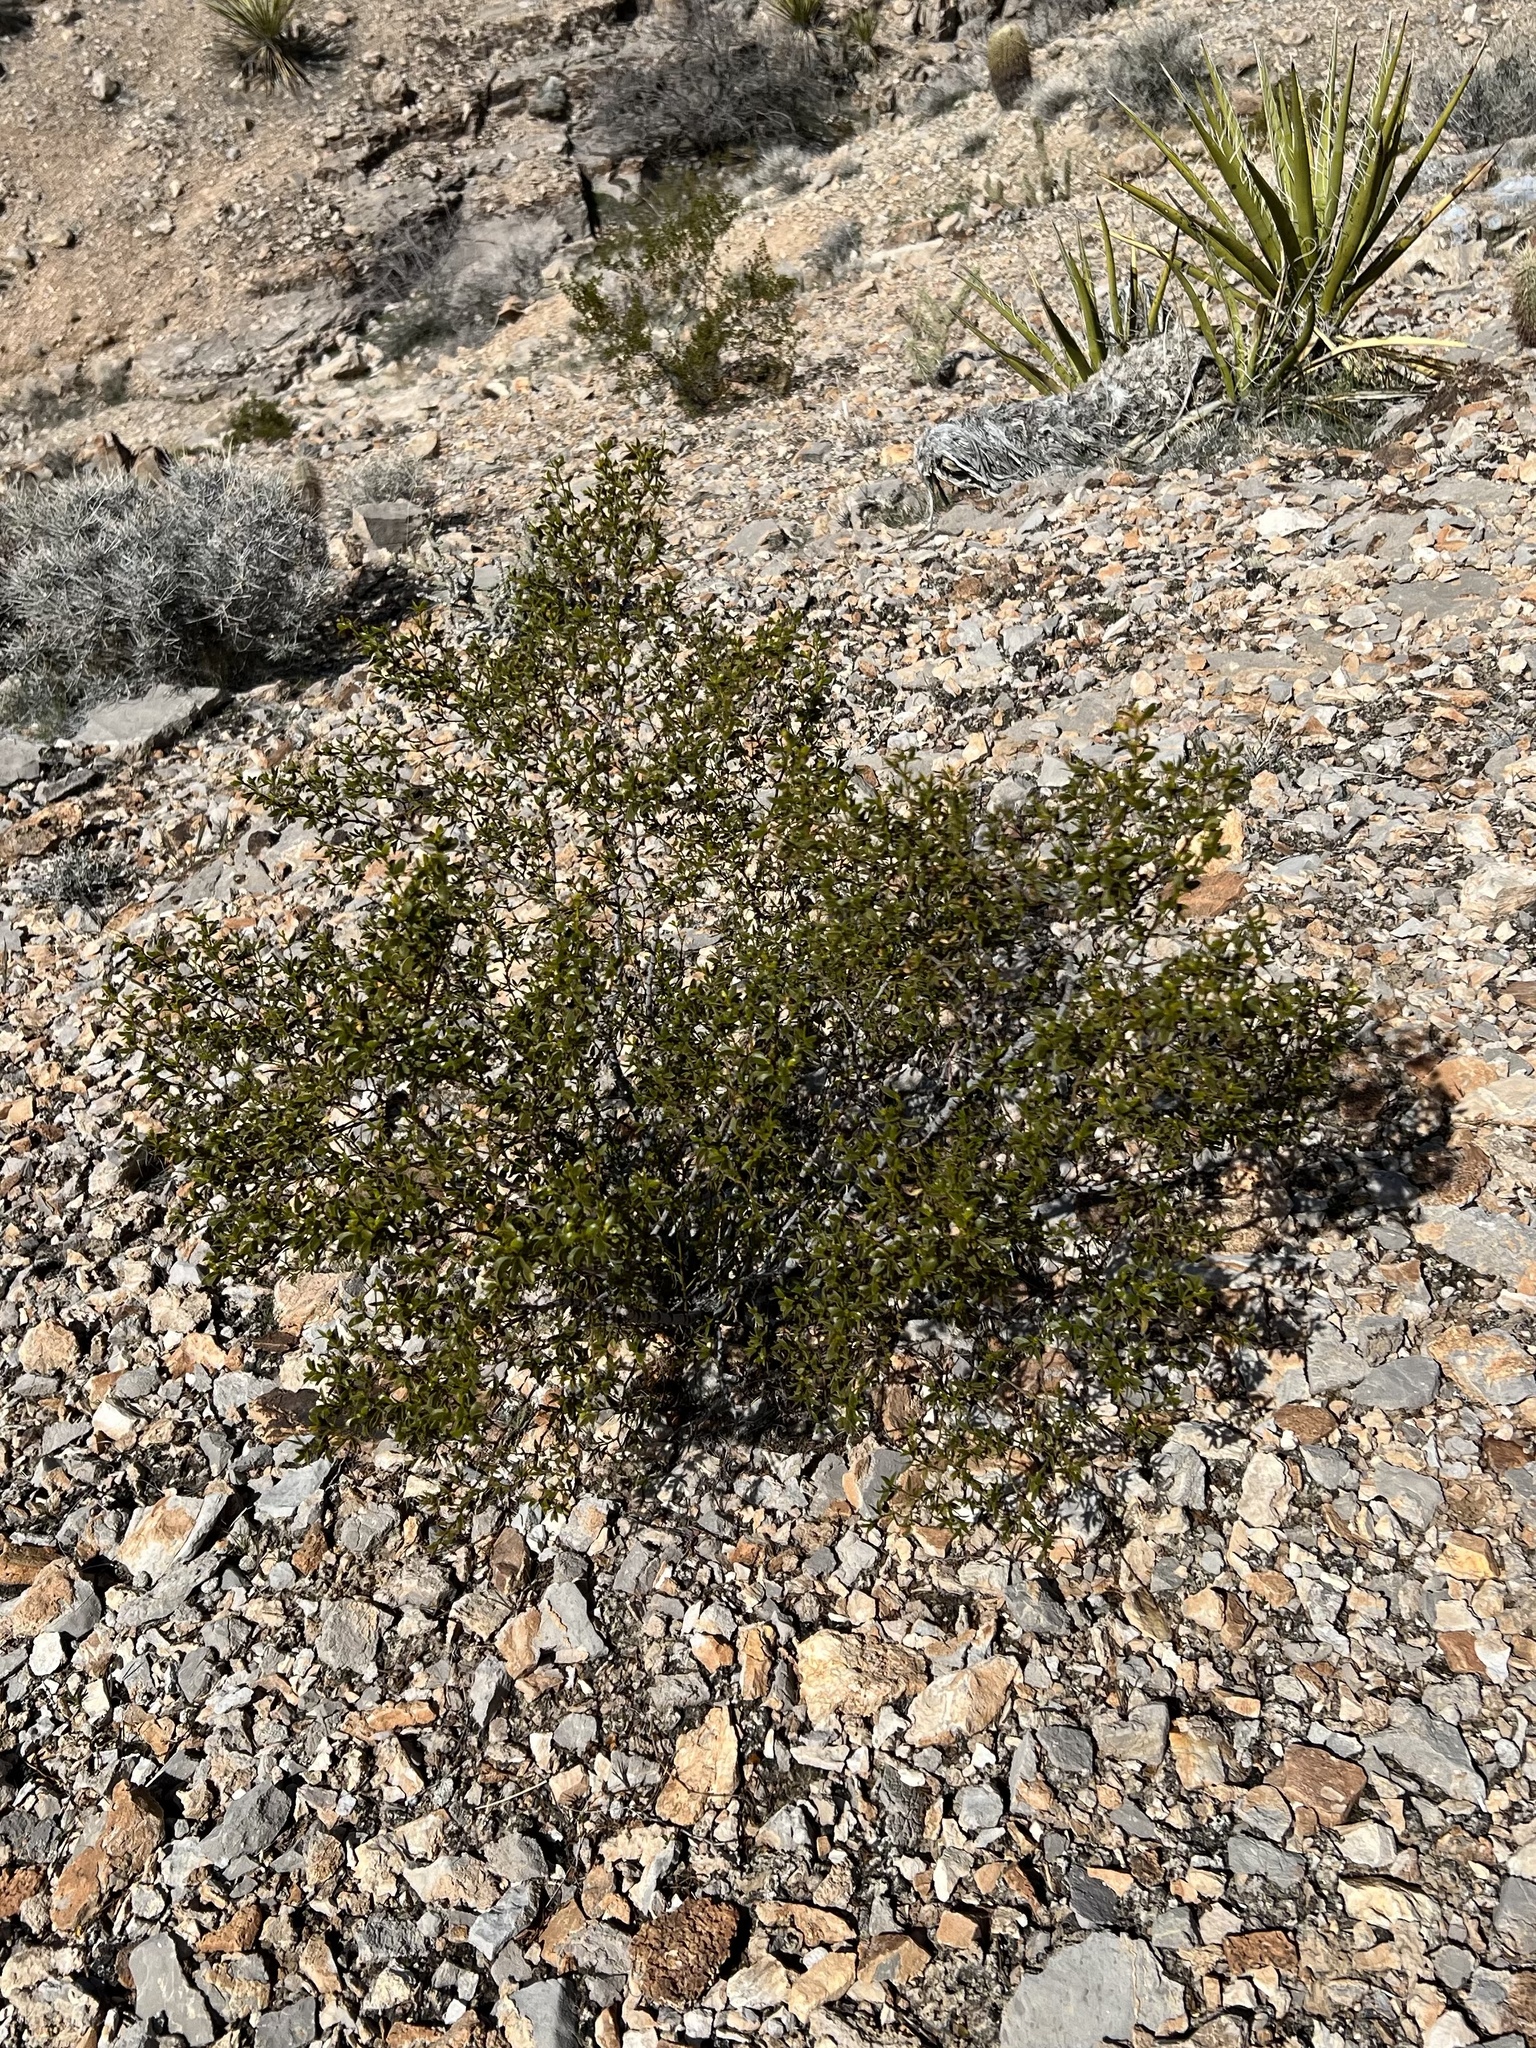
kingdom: Plantae
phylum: Tracheophyta
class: Magnoliopsida
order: Zygophyllales
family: Zygophyllaceae
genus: Larrea
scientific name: Larrea tridentata
